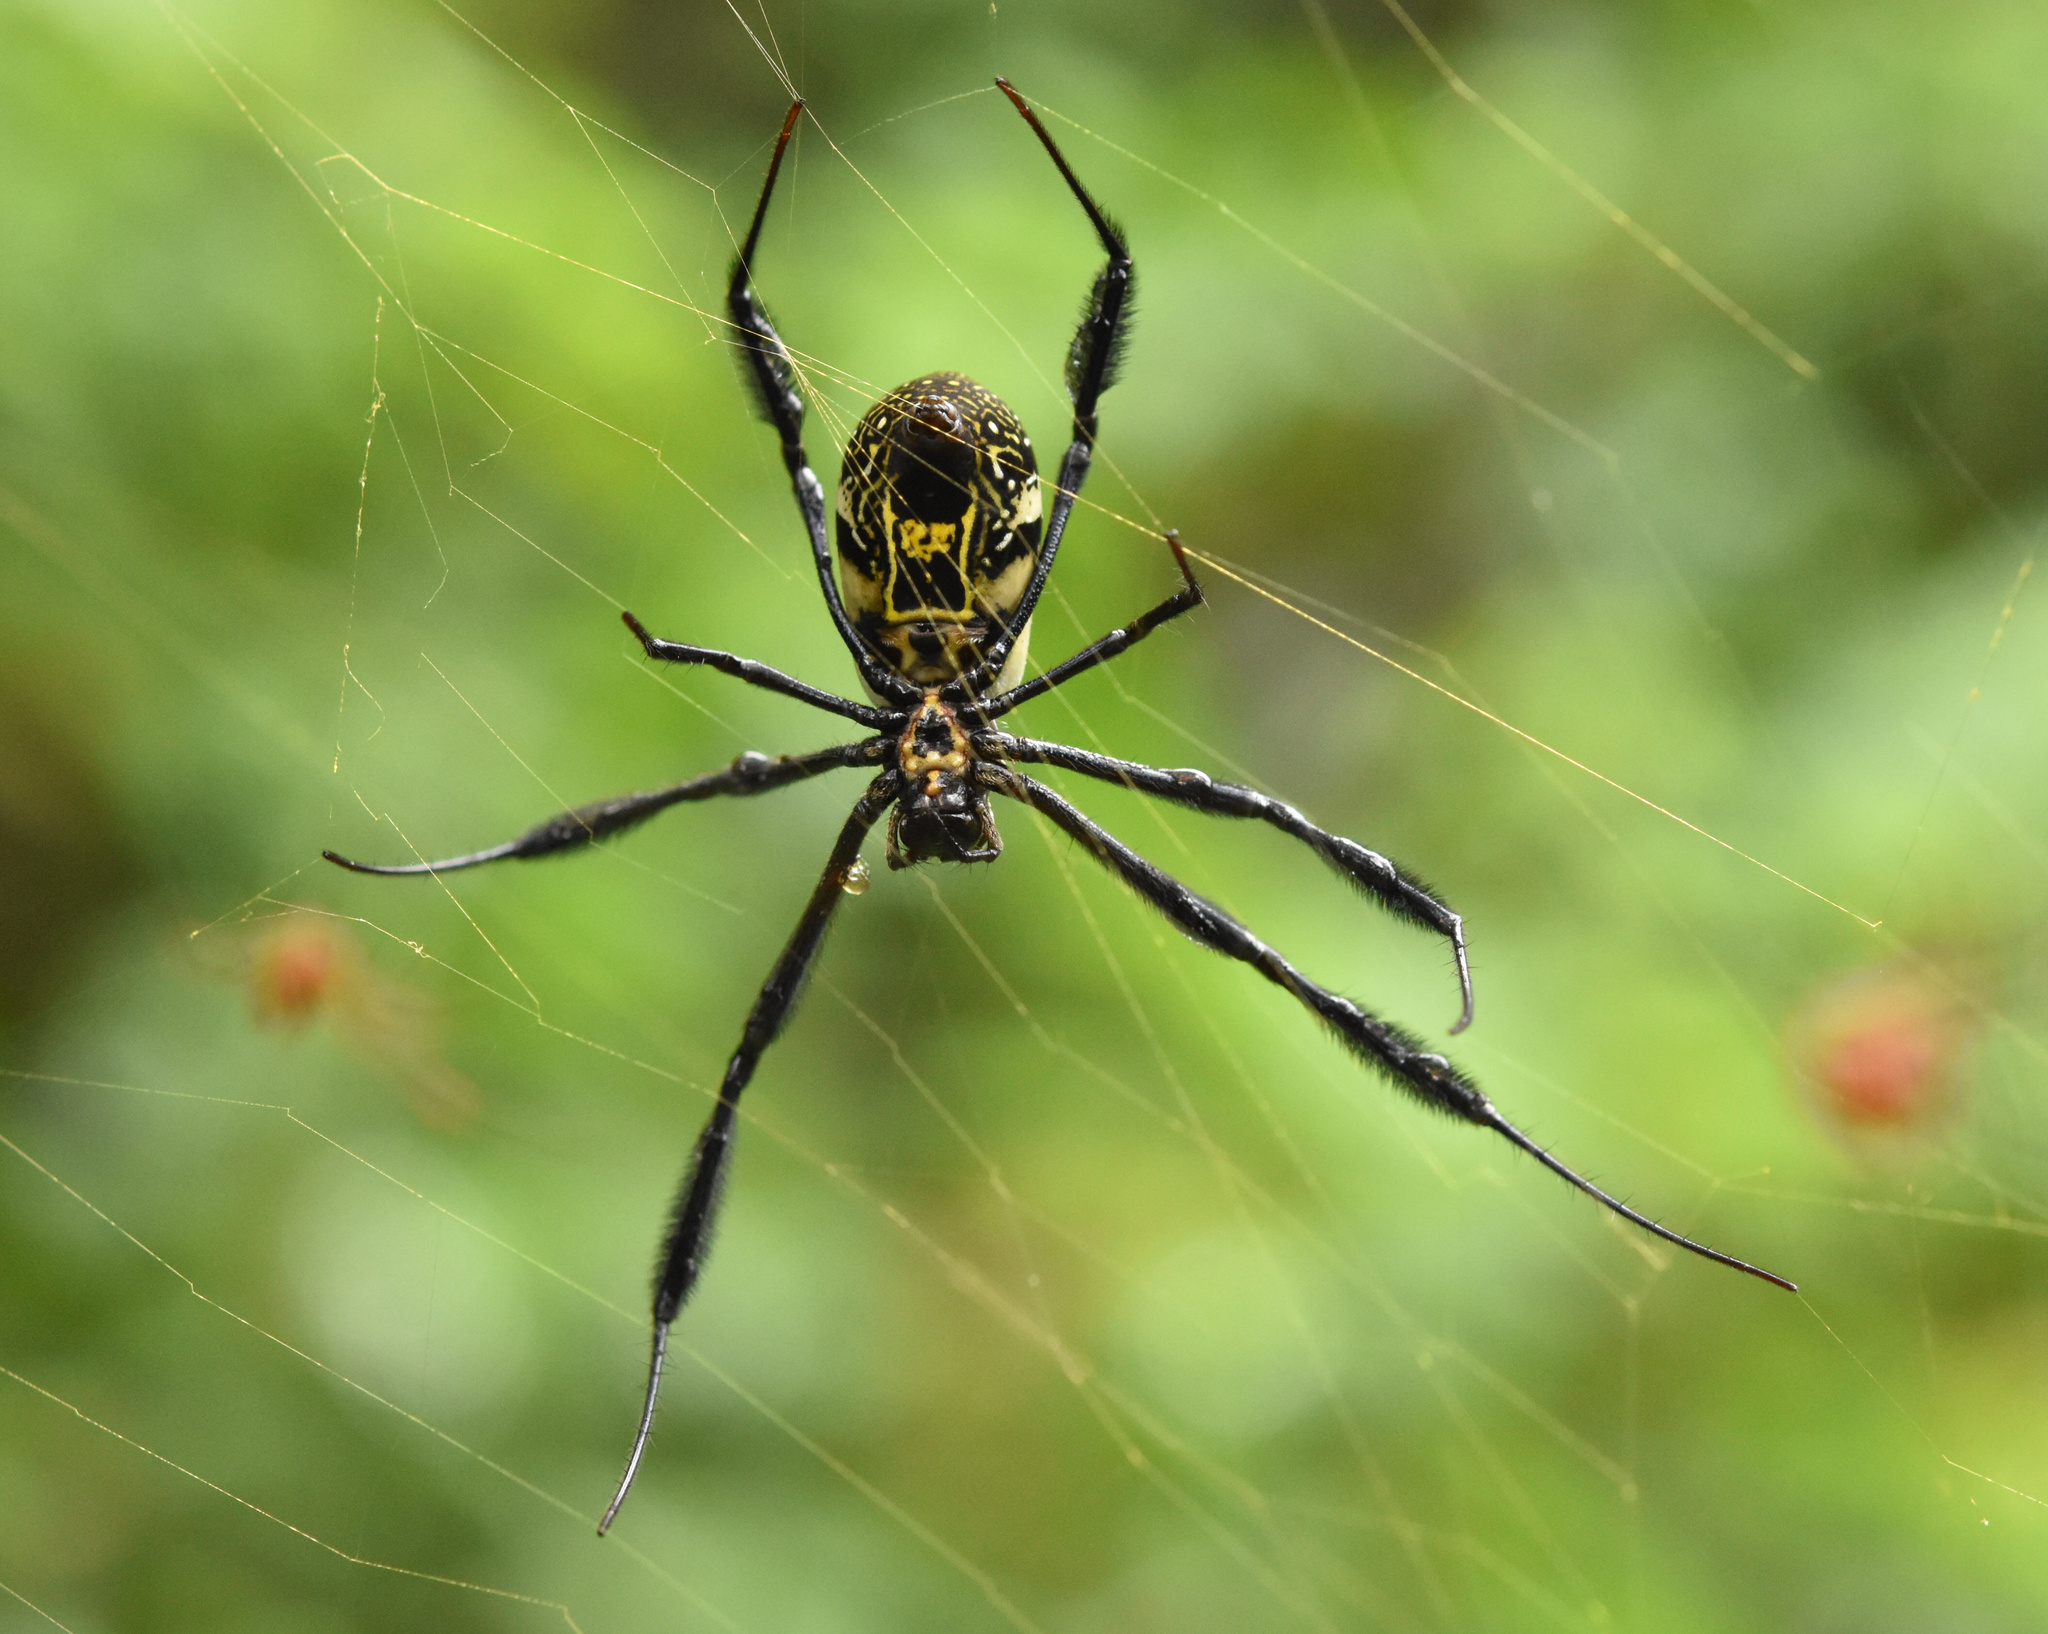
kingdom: Animalia
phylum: Arthropoda
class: Arachnida
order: Araneae
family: Araneidae
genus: Trichonephila
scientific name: Trichonephila fenestrata
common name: Hairy golden orb weaver
